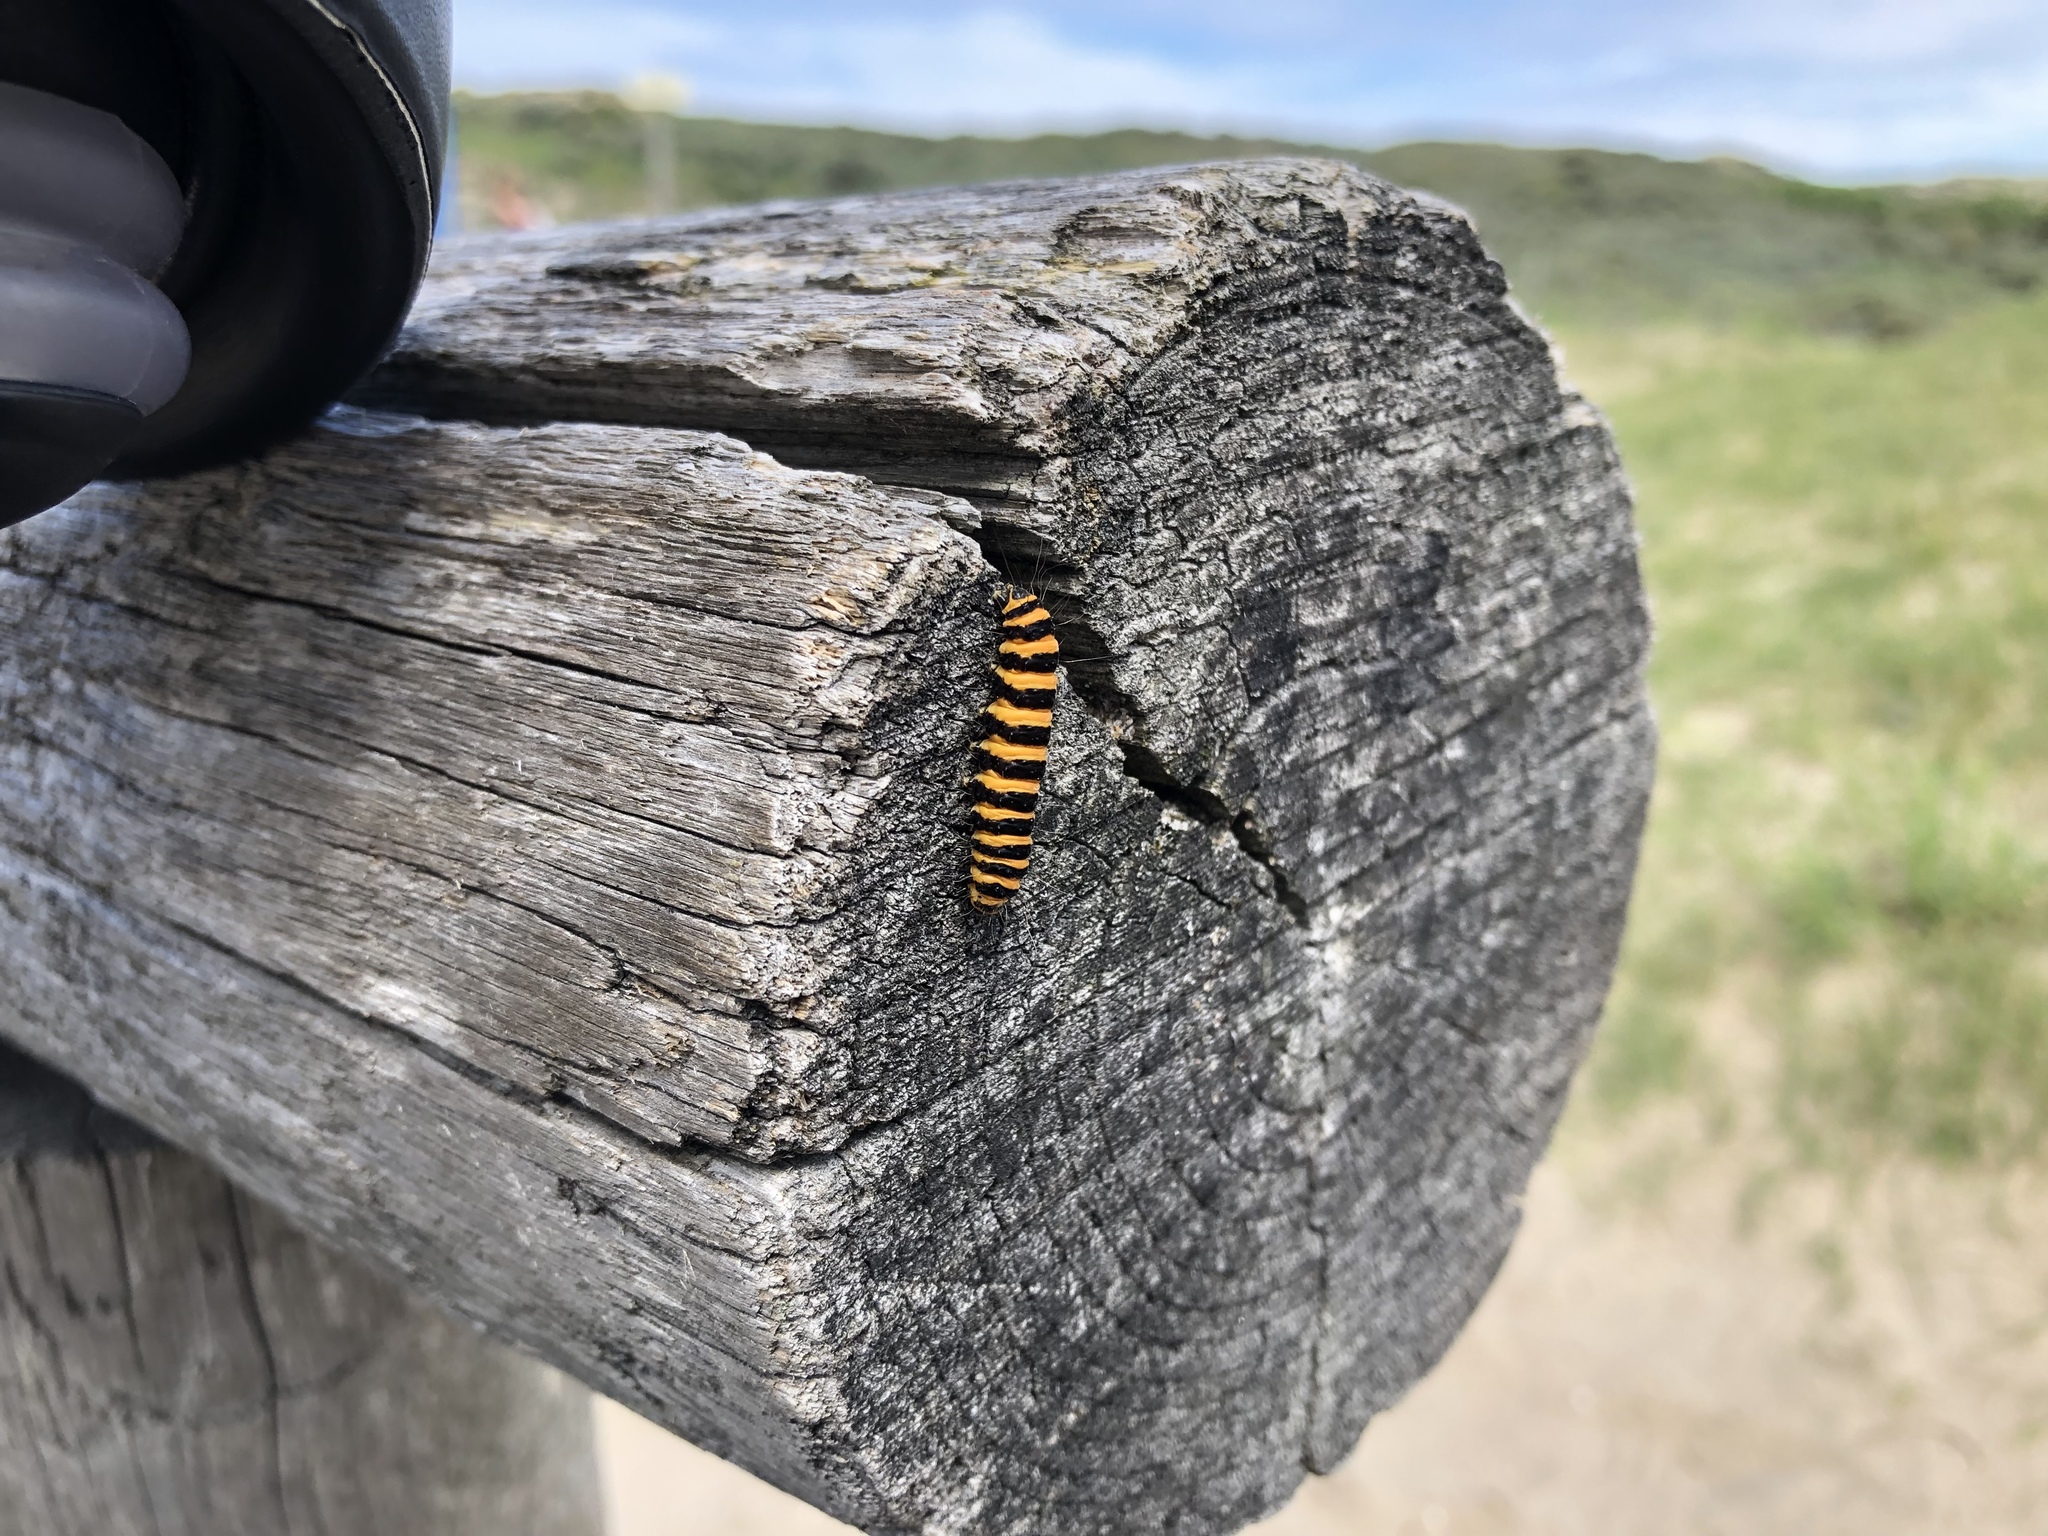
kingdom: Animalia
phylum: Arthropoda
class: Insecta
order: Lepidoptera
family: Erebidae
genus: Tyria
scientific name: Tyria jacobaeae
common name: Cinnabar
